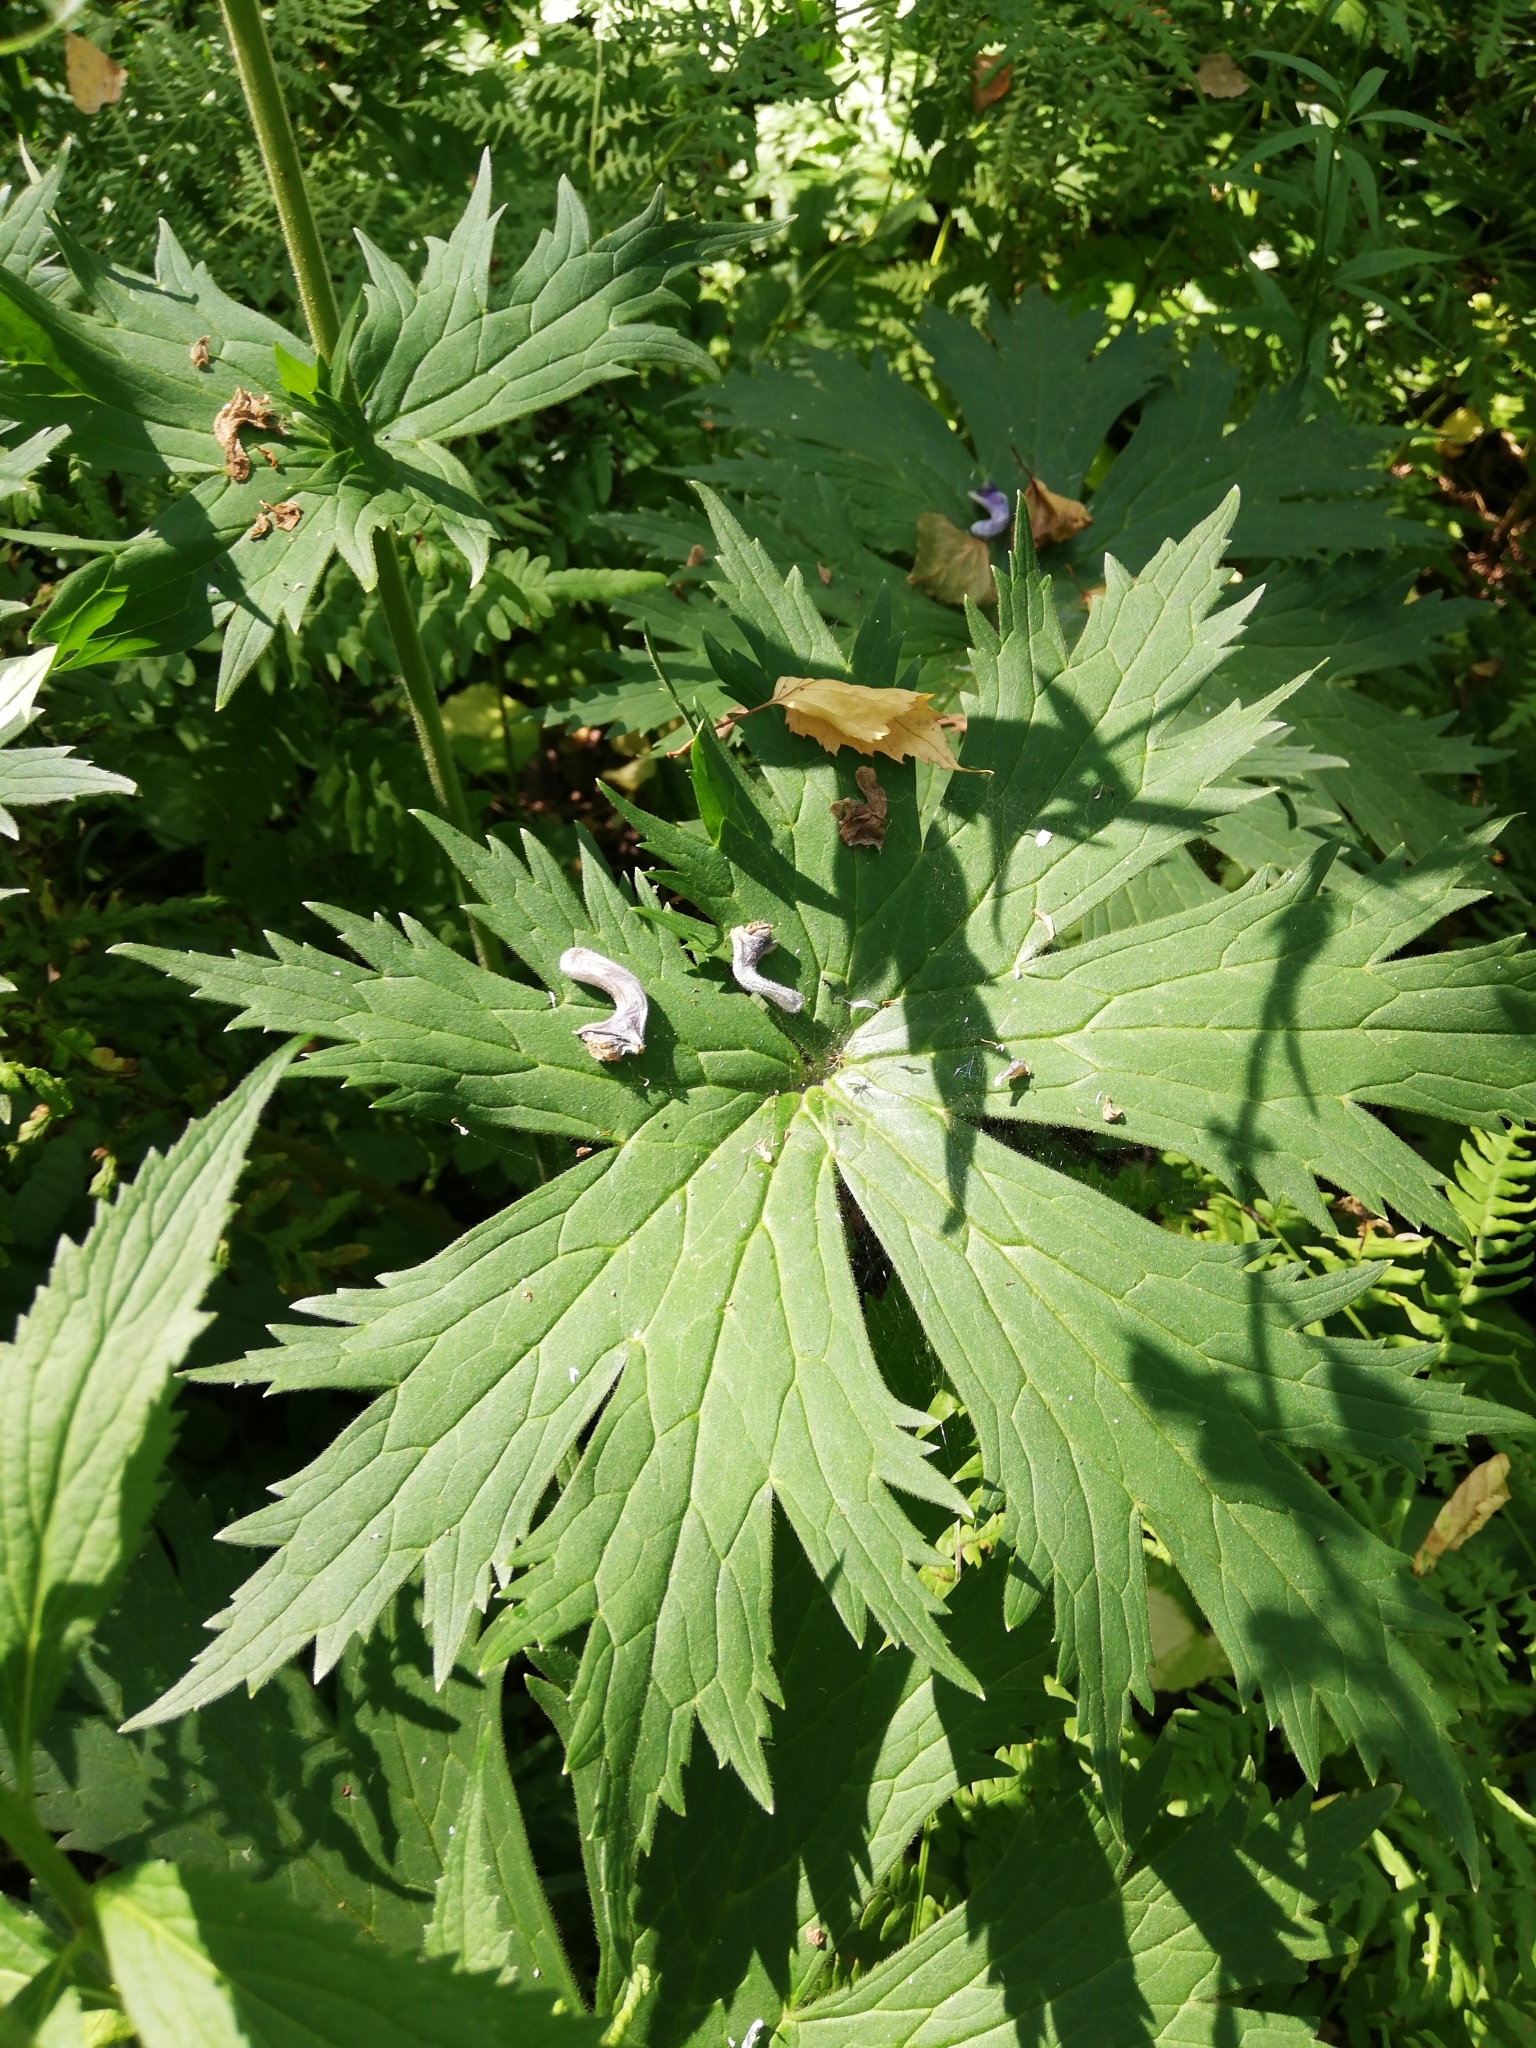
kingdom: Plantae
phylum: Tracheophyta
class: Magnoliopsida
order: Ranunculales
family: Ranunculaceae
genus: Aconitum
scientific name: Aconitum septentrionale
